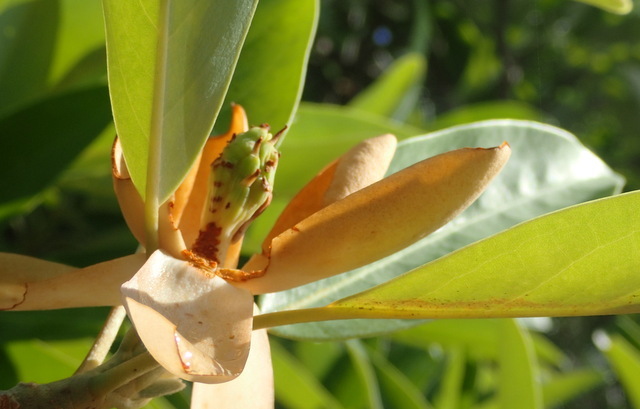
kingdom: Plantae
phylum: Tracheophyta
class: Magnoliopsida
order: Magnoliales
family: Magnoliaceae
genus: Magnolia
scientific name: Magnolia virginiana
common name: Swamp bay
